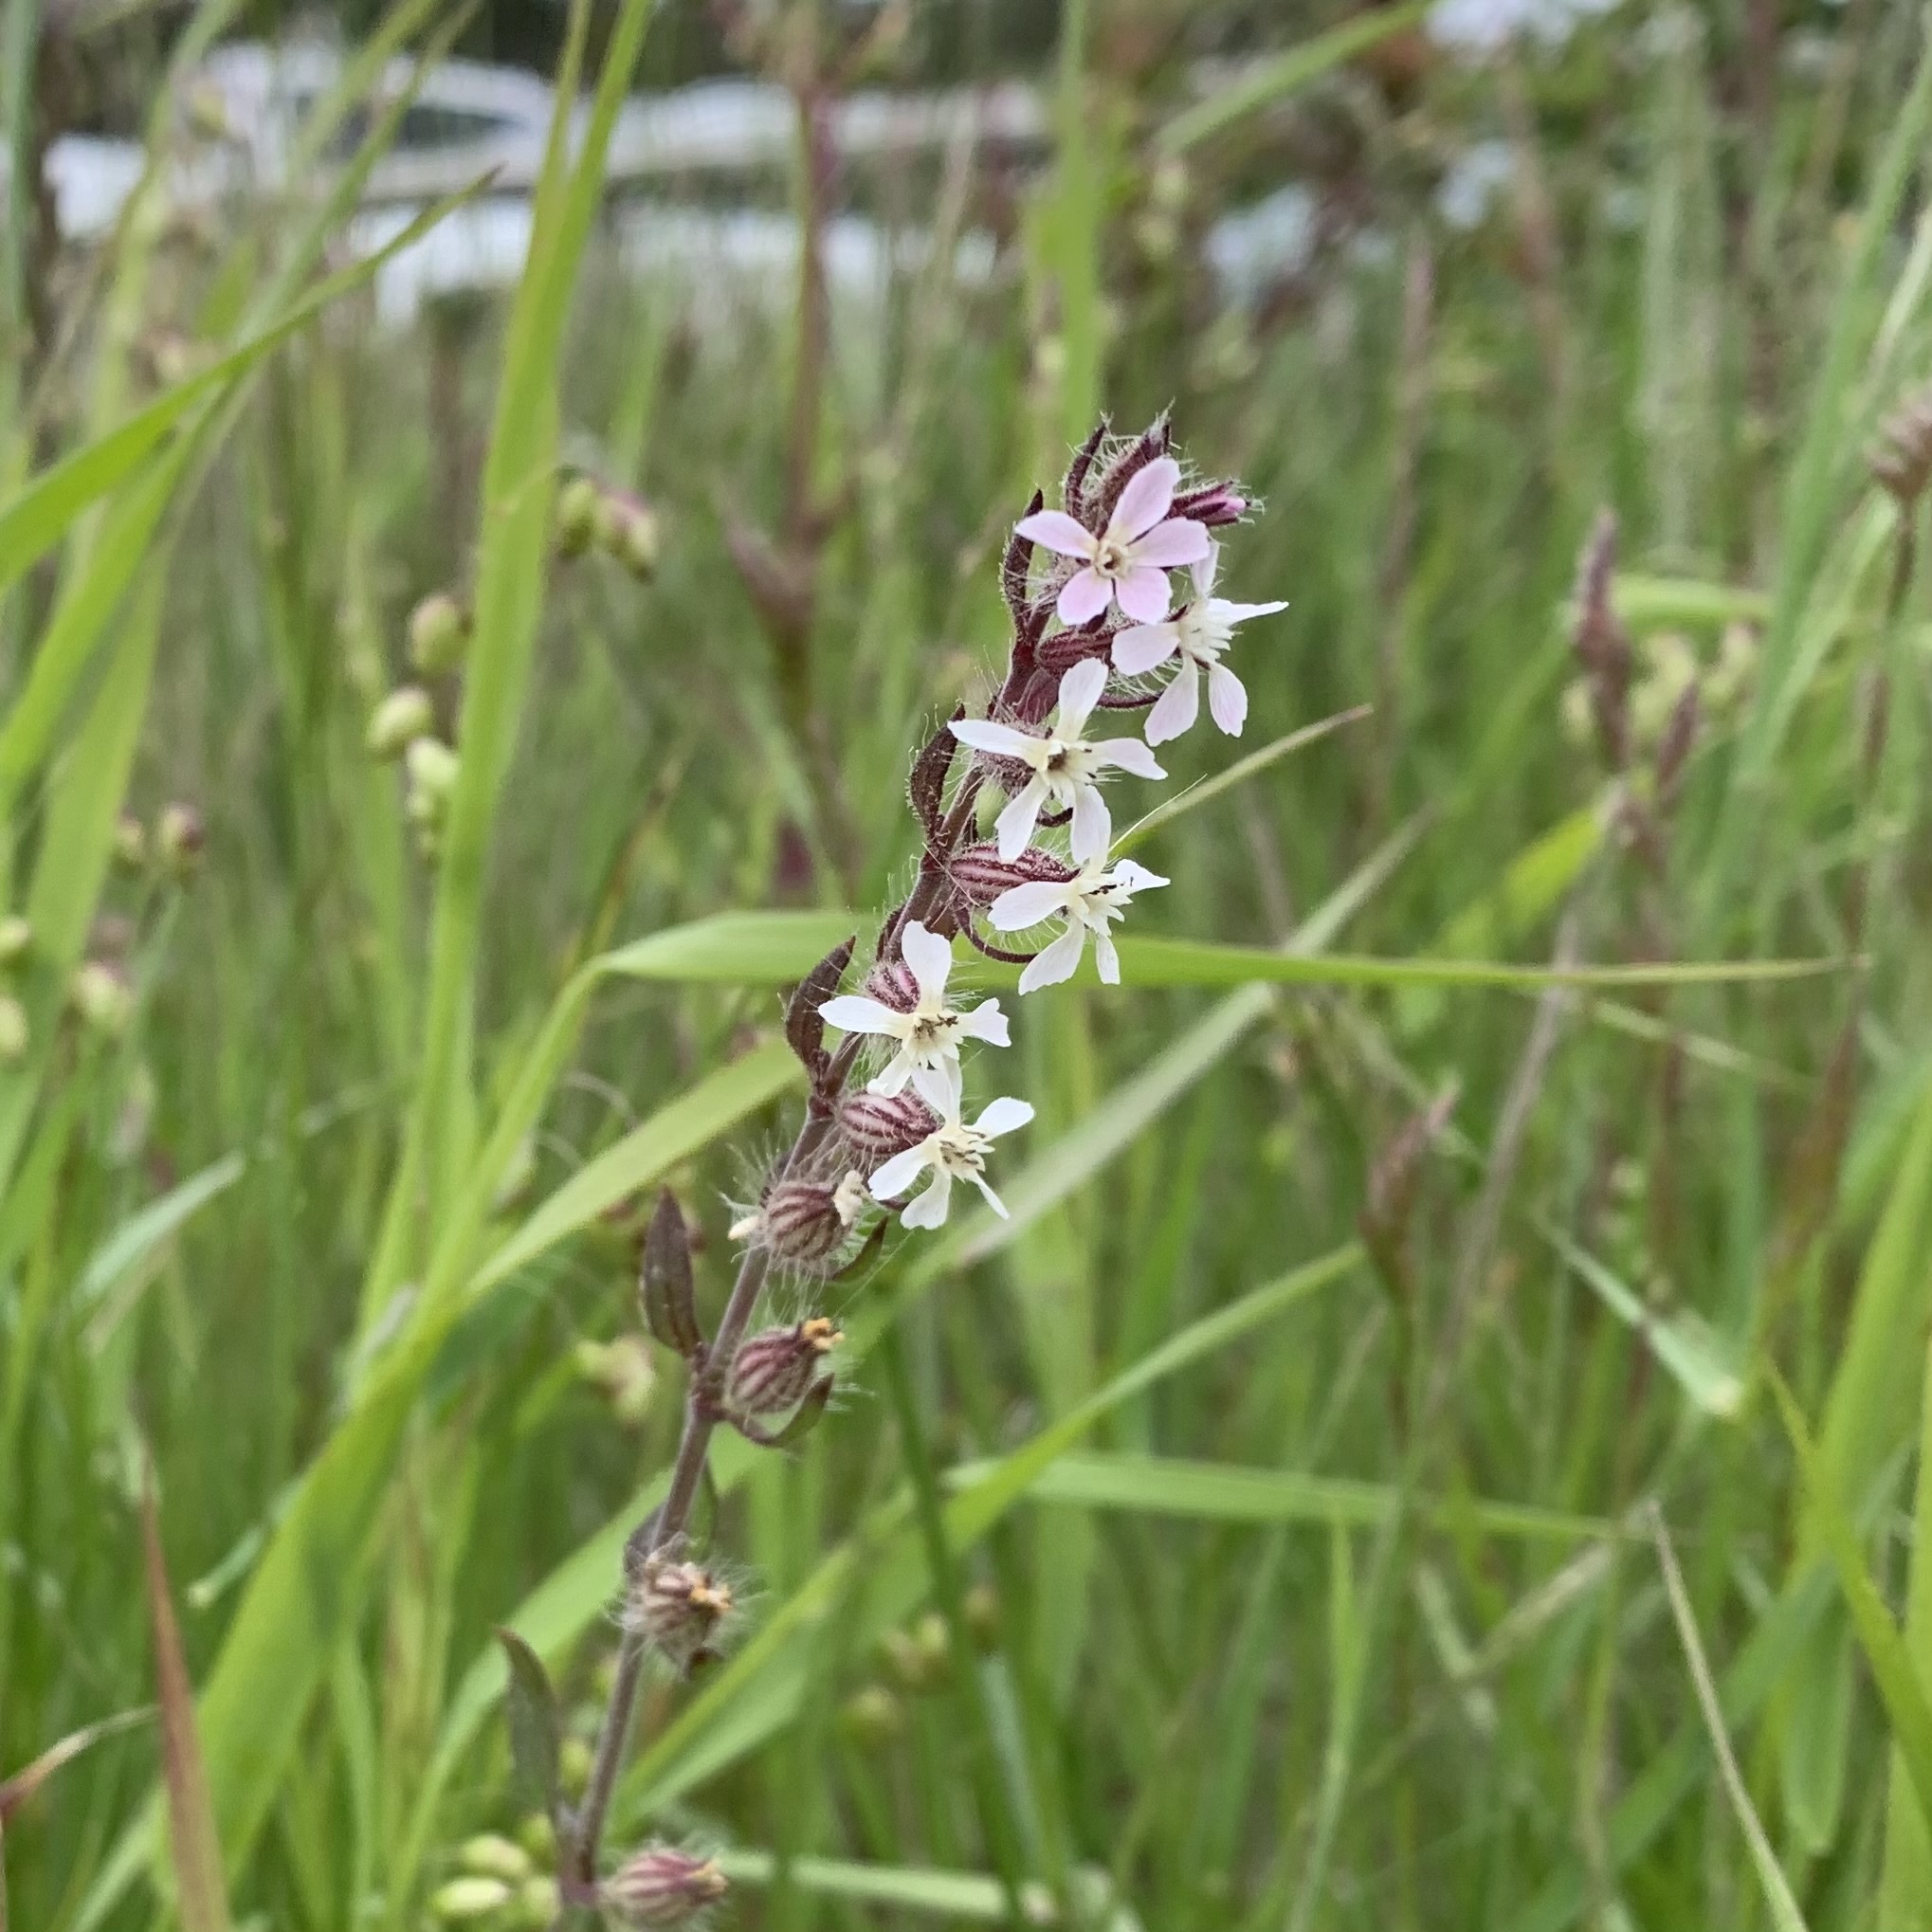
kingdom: Plantae
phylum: Tracheophyta
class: Magnoliopsida
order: Caryophyllales
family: Caryophyllaceae
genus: Silene
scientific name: Silene gallica
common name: Small-flowered catchfly
